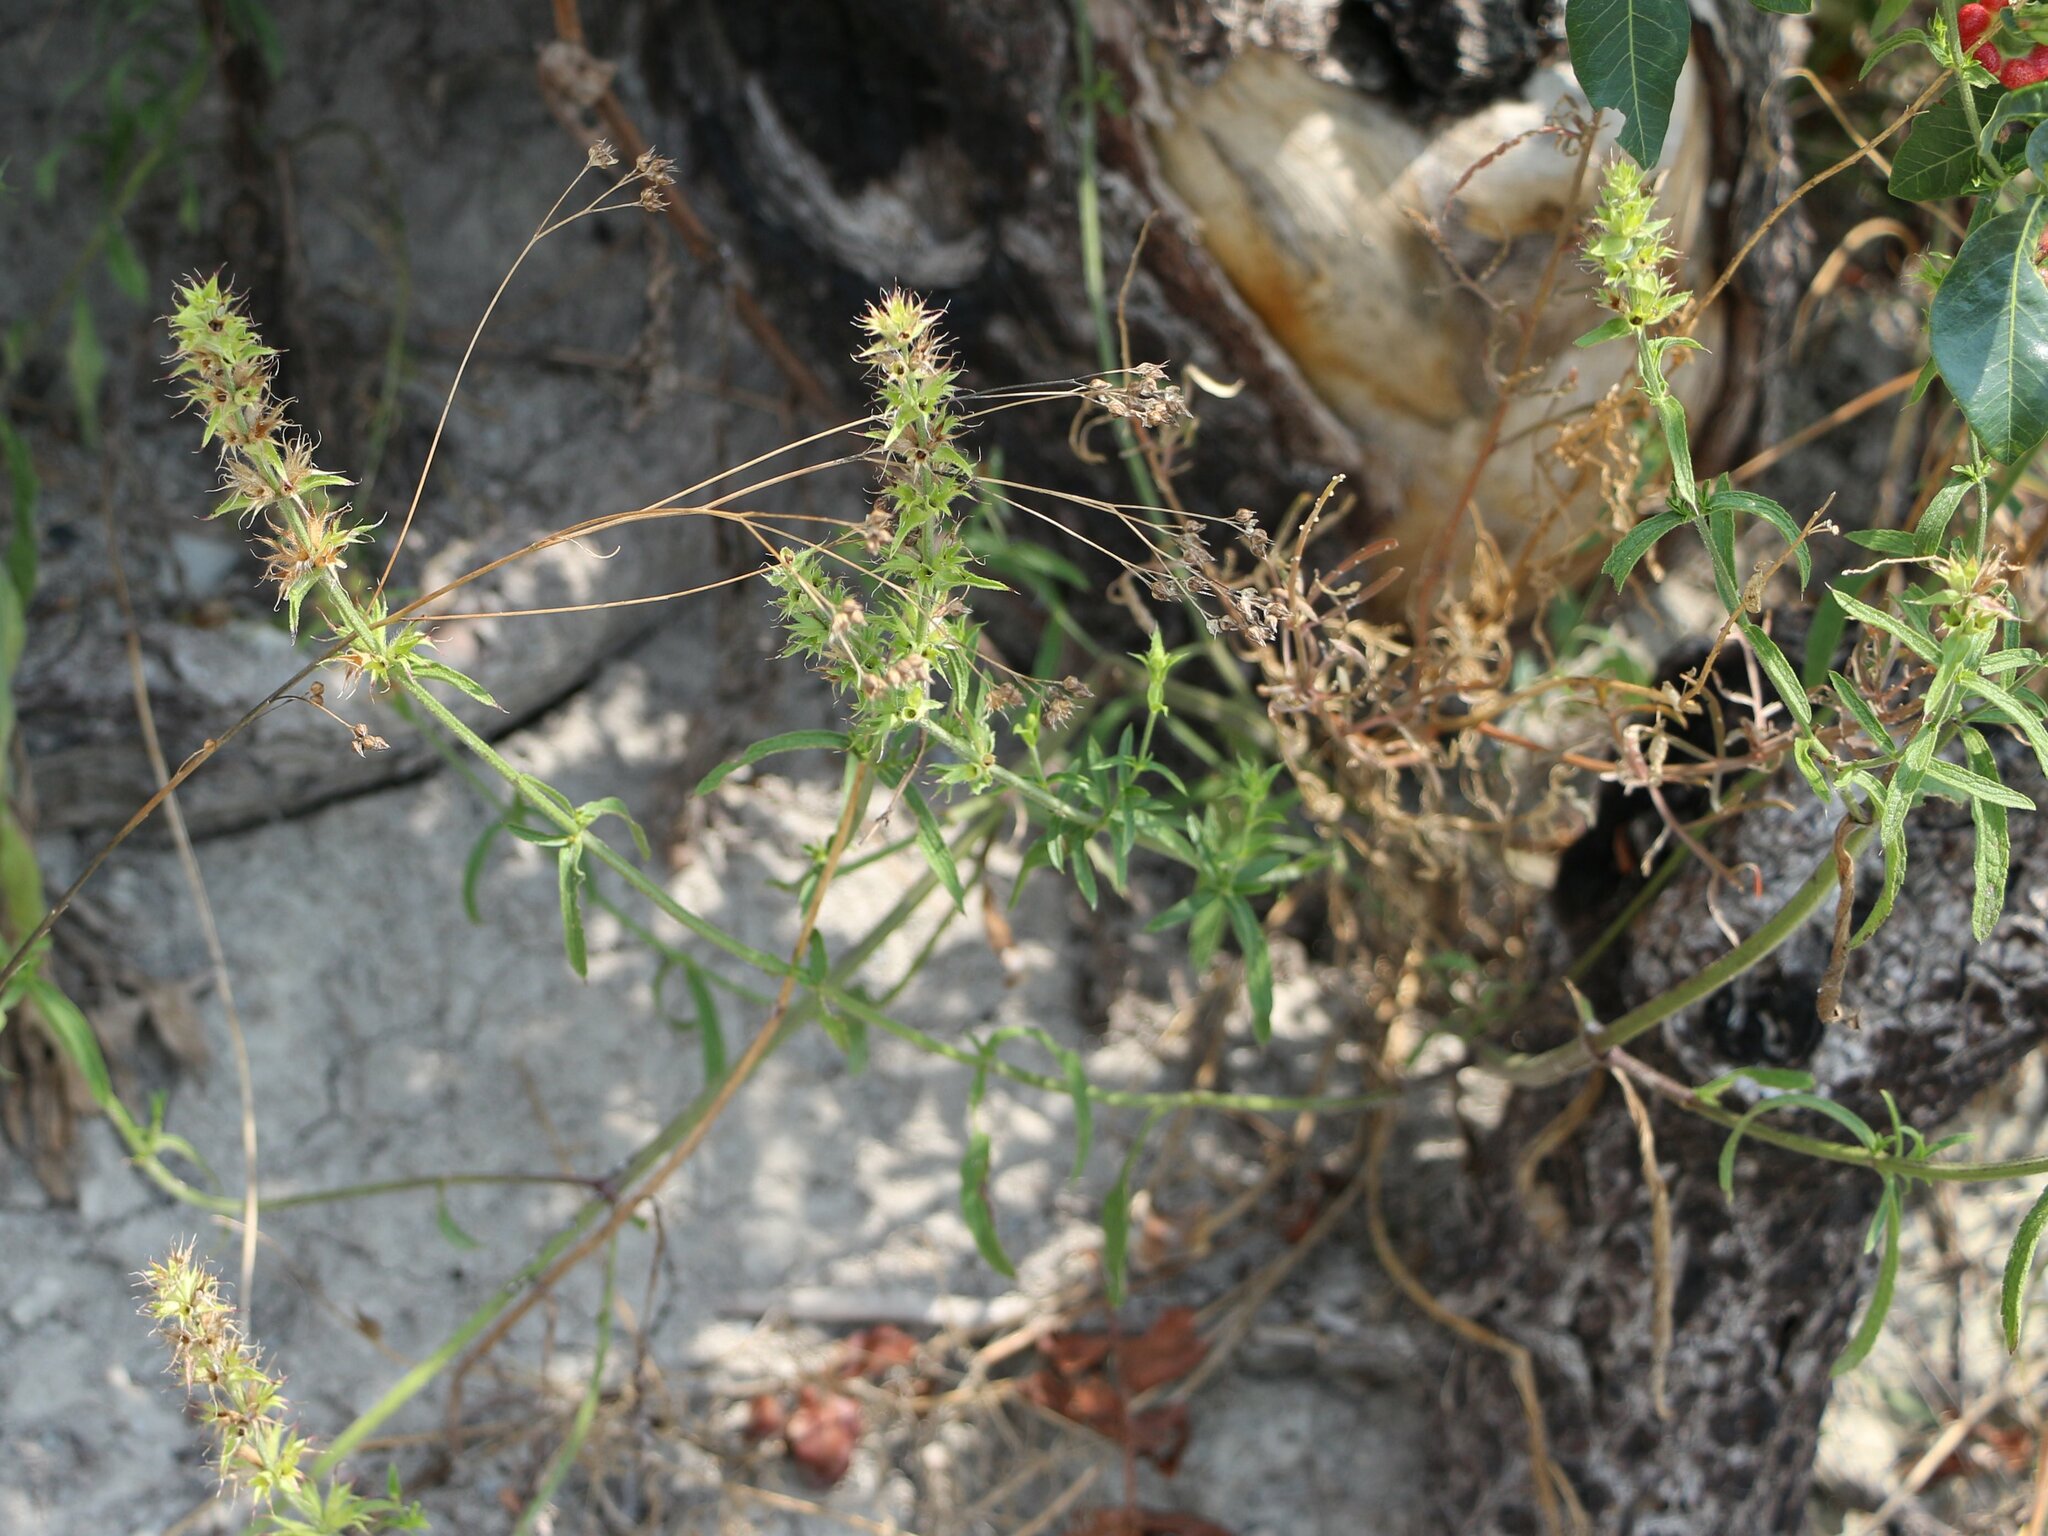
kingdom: Plantae
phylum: Tracheophyta
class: Magnoliopsida
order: Lamiales
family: Lamiaceae
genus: Stachys
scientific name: Stachys atherocalyx
